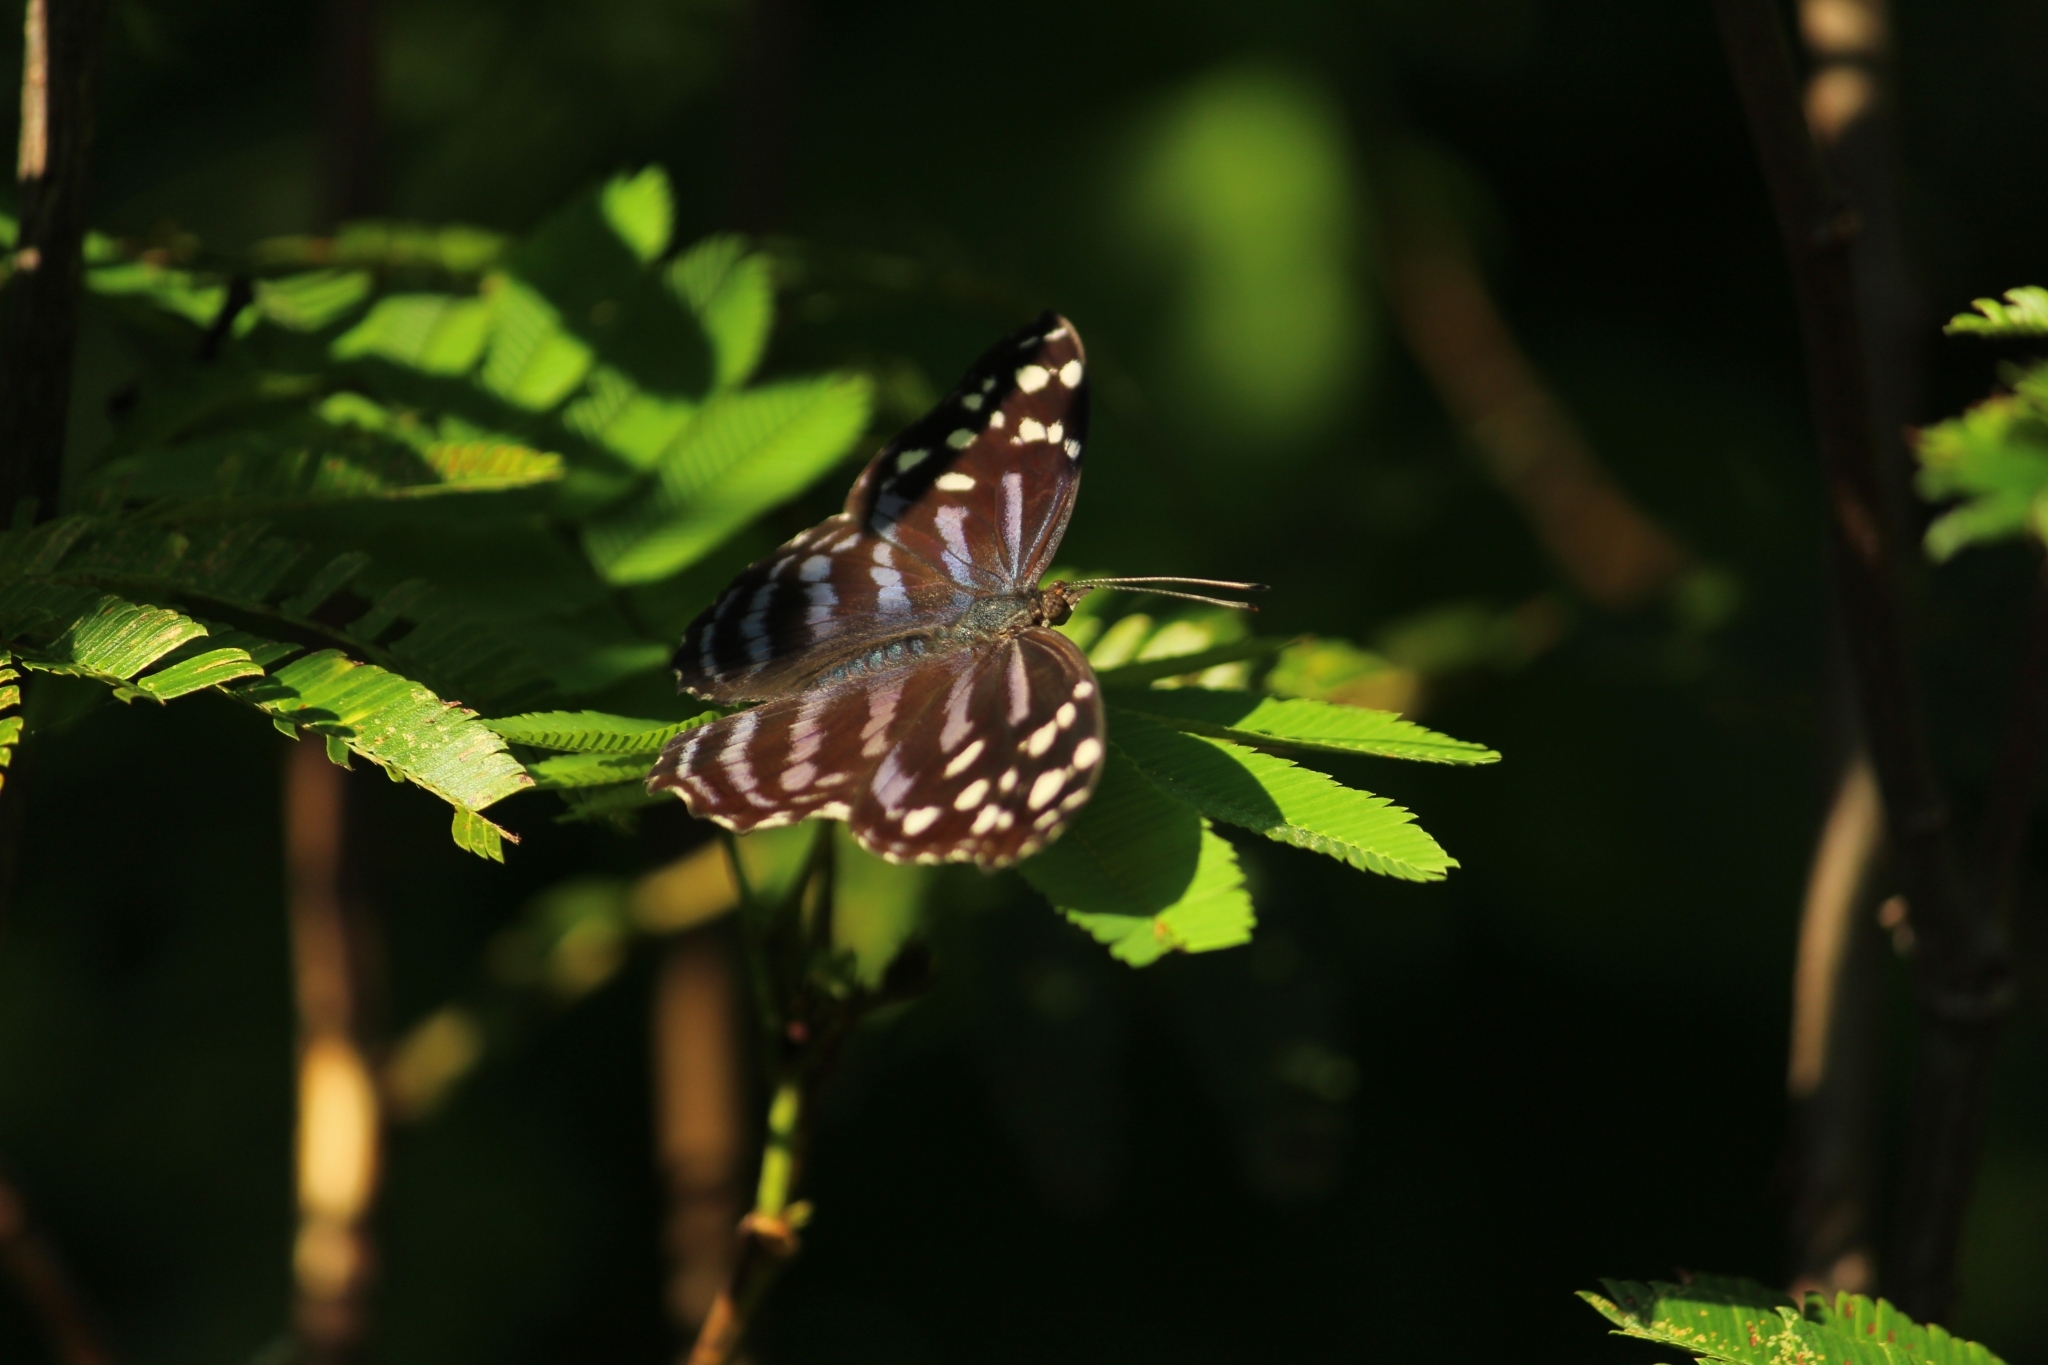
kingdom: Animalia
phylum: Arthropoda
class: Insecta
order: Lepidoptera
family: Nymphalidae
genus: Myscelia
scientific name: Myscelia ethusa
